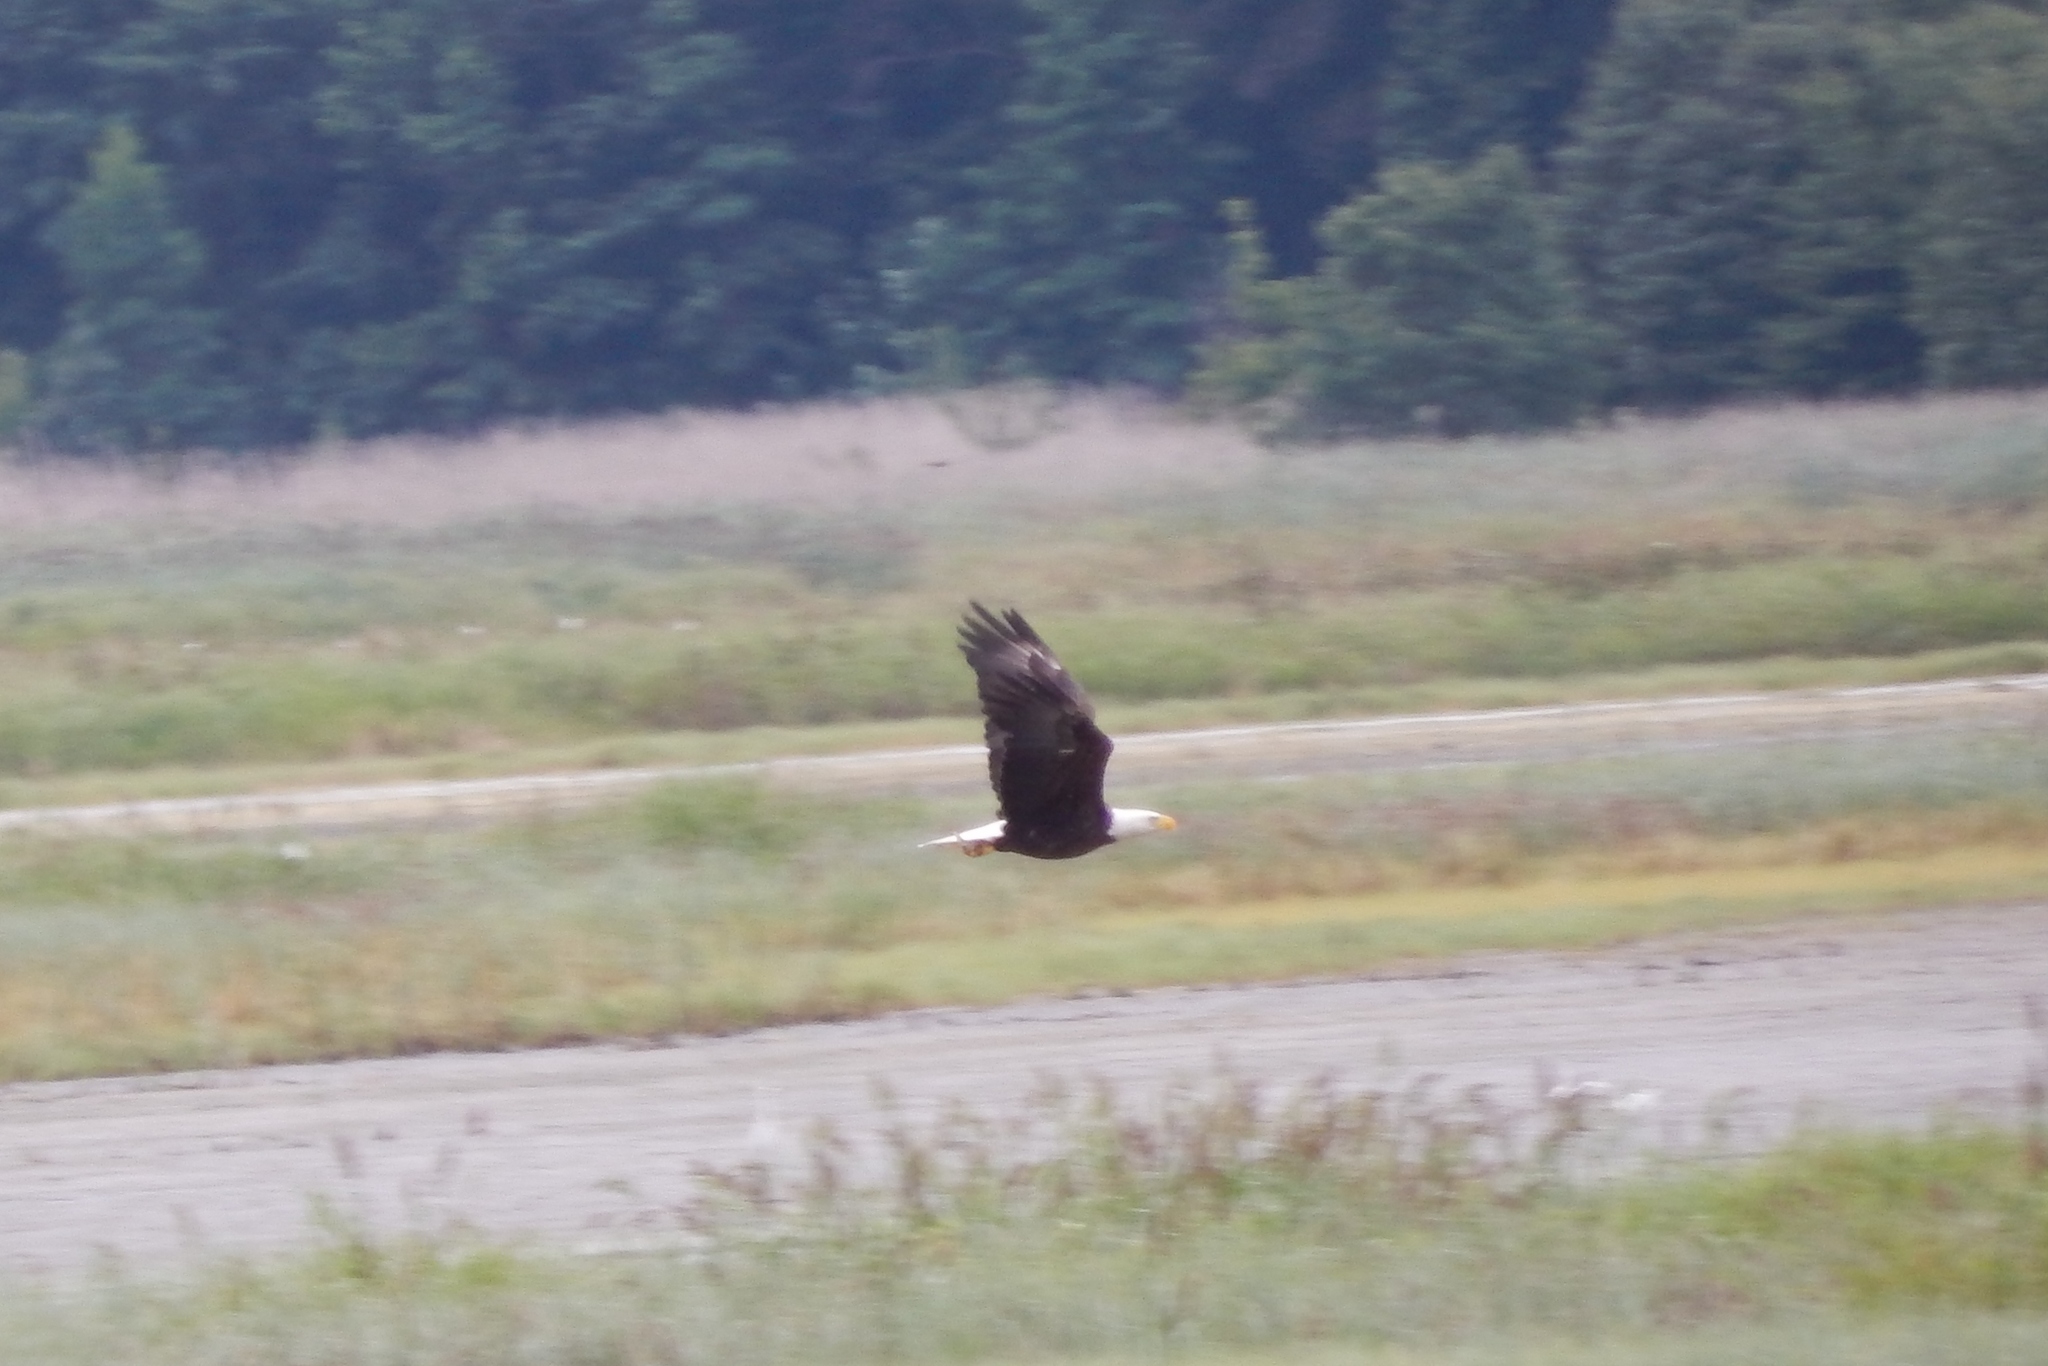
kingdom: Animalia
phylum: Chordata
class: Aves
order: Accipitriformes
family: Accipitridae
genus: Haliaeetus
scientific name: Haliaeetus leucocephalus
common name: Bald eagle
